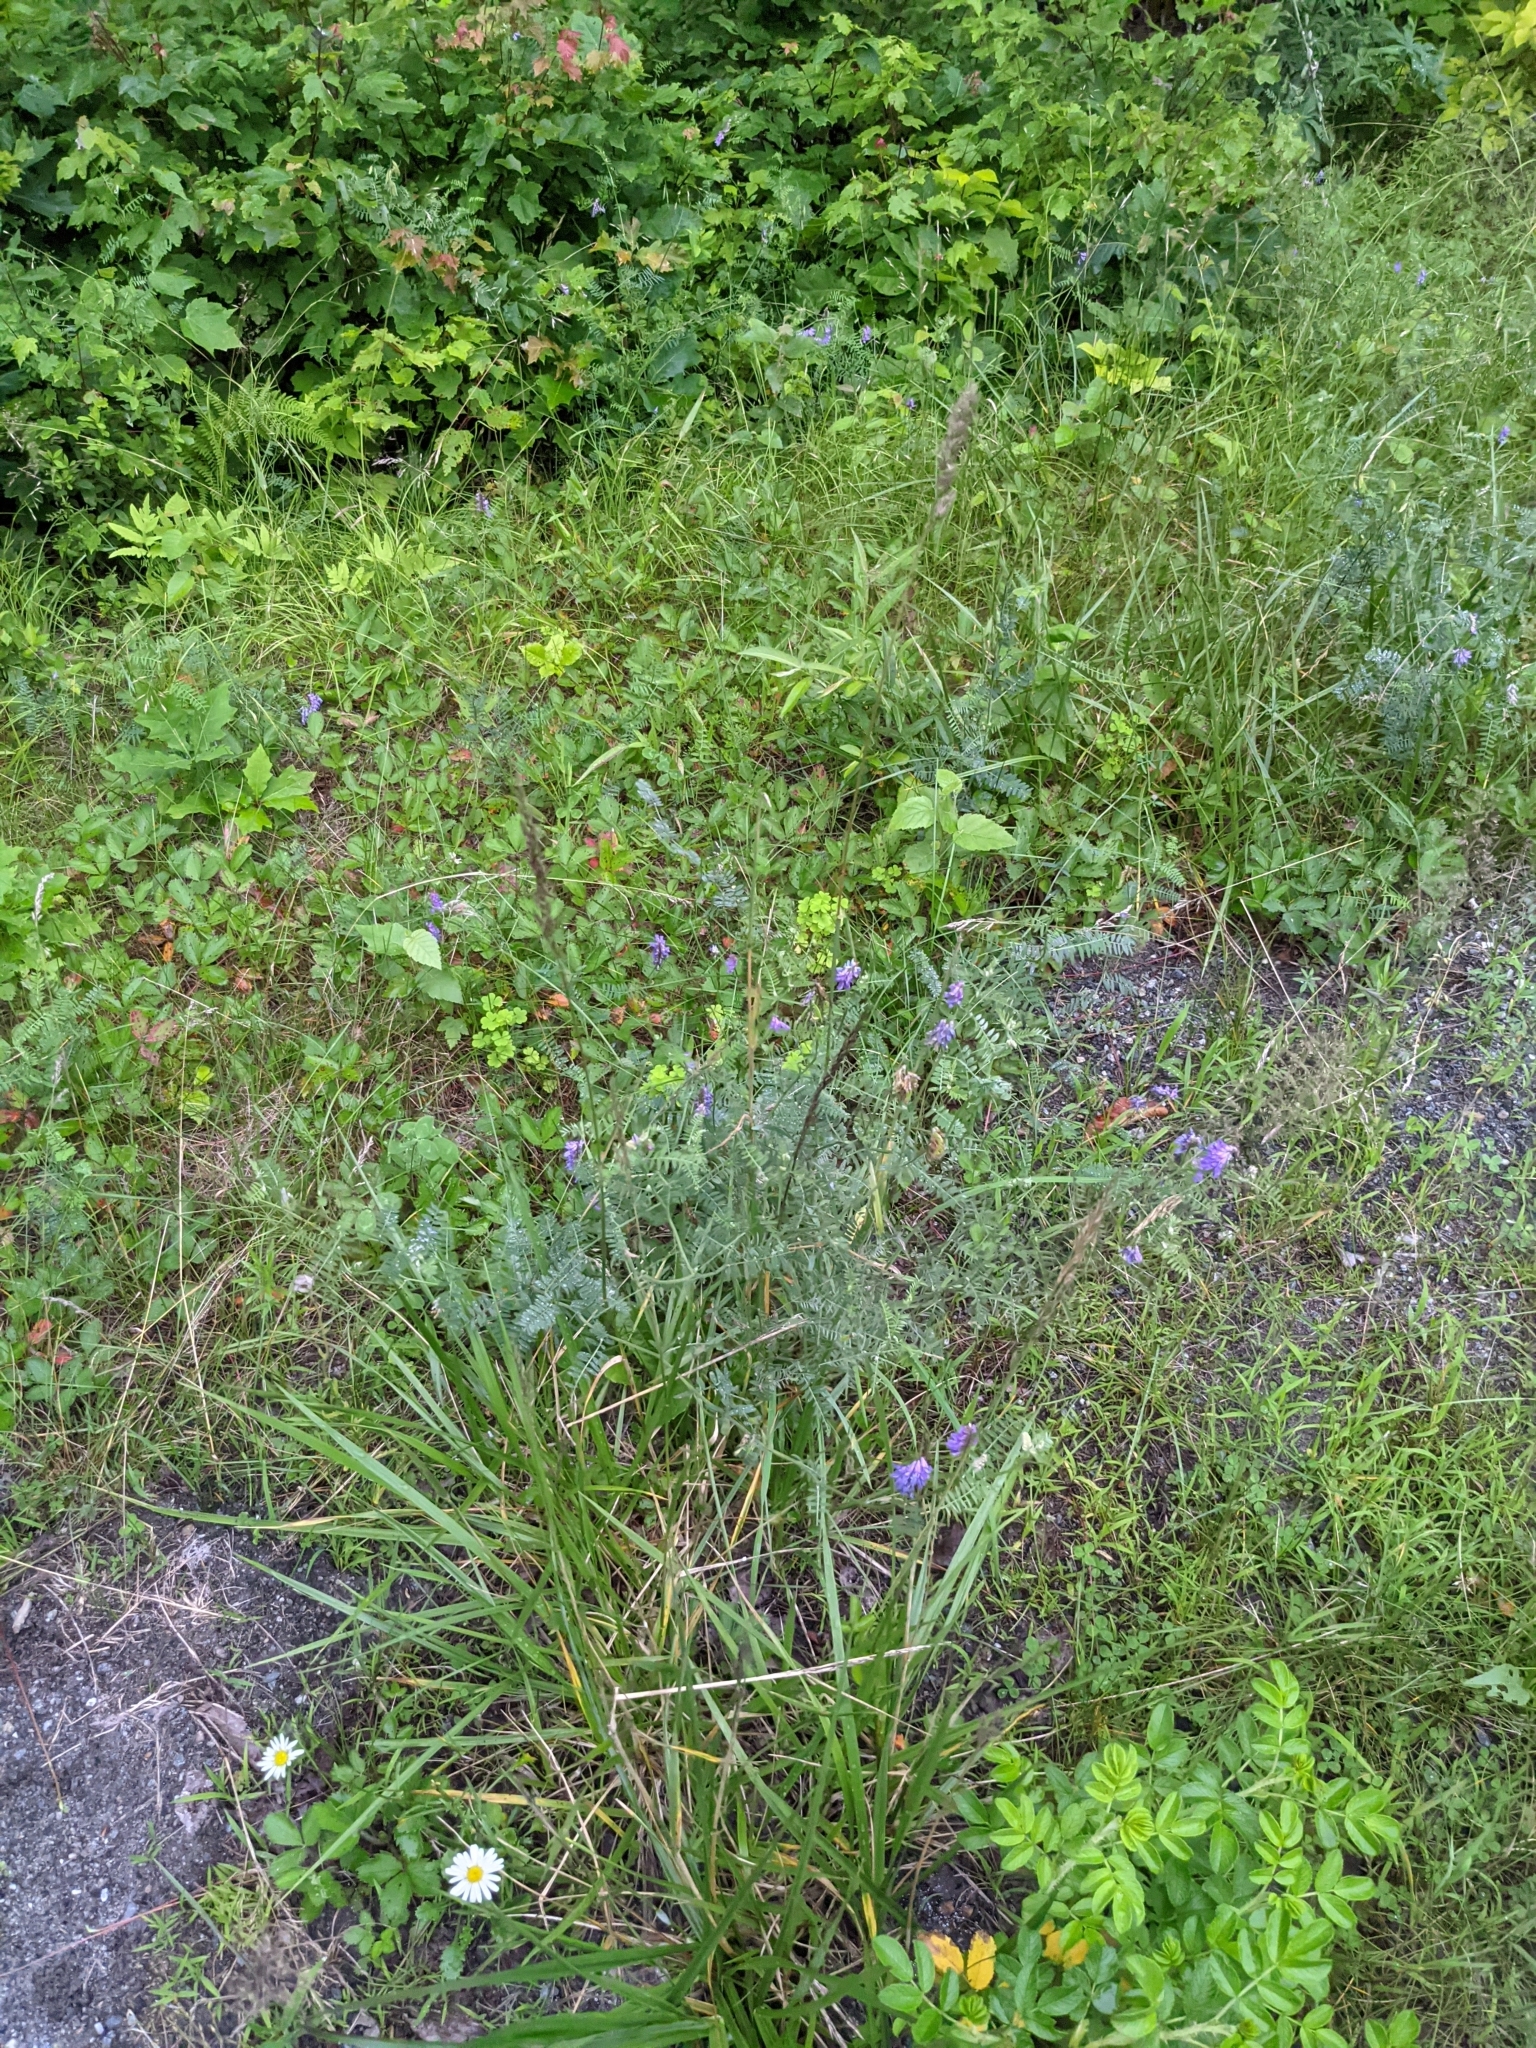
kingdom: Plantae
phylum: Tracheophyta
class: Magnoliopsida
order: Fabales
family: Fabaceae
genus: Vicia
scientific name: Vicia cracca
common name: Bird vetch
